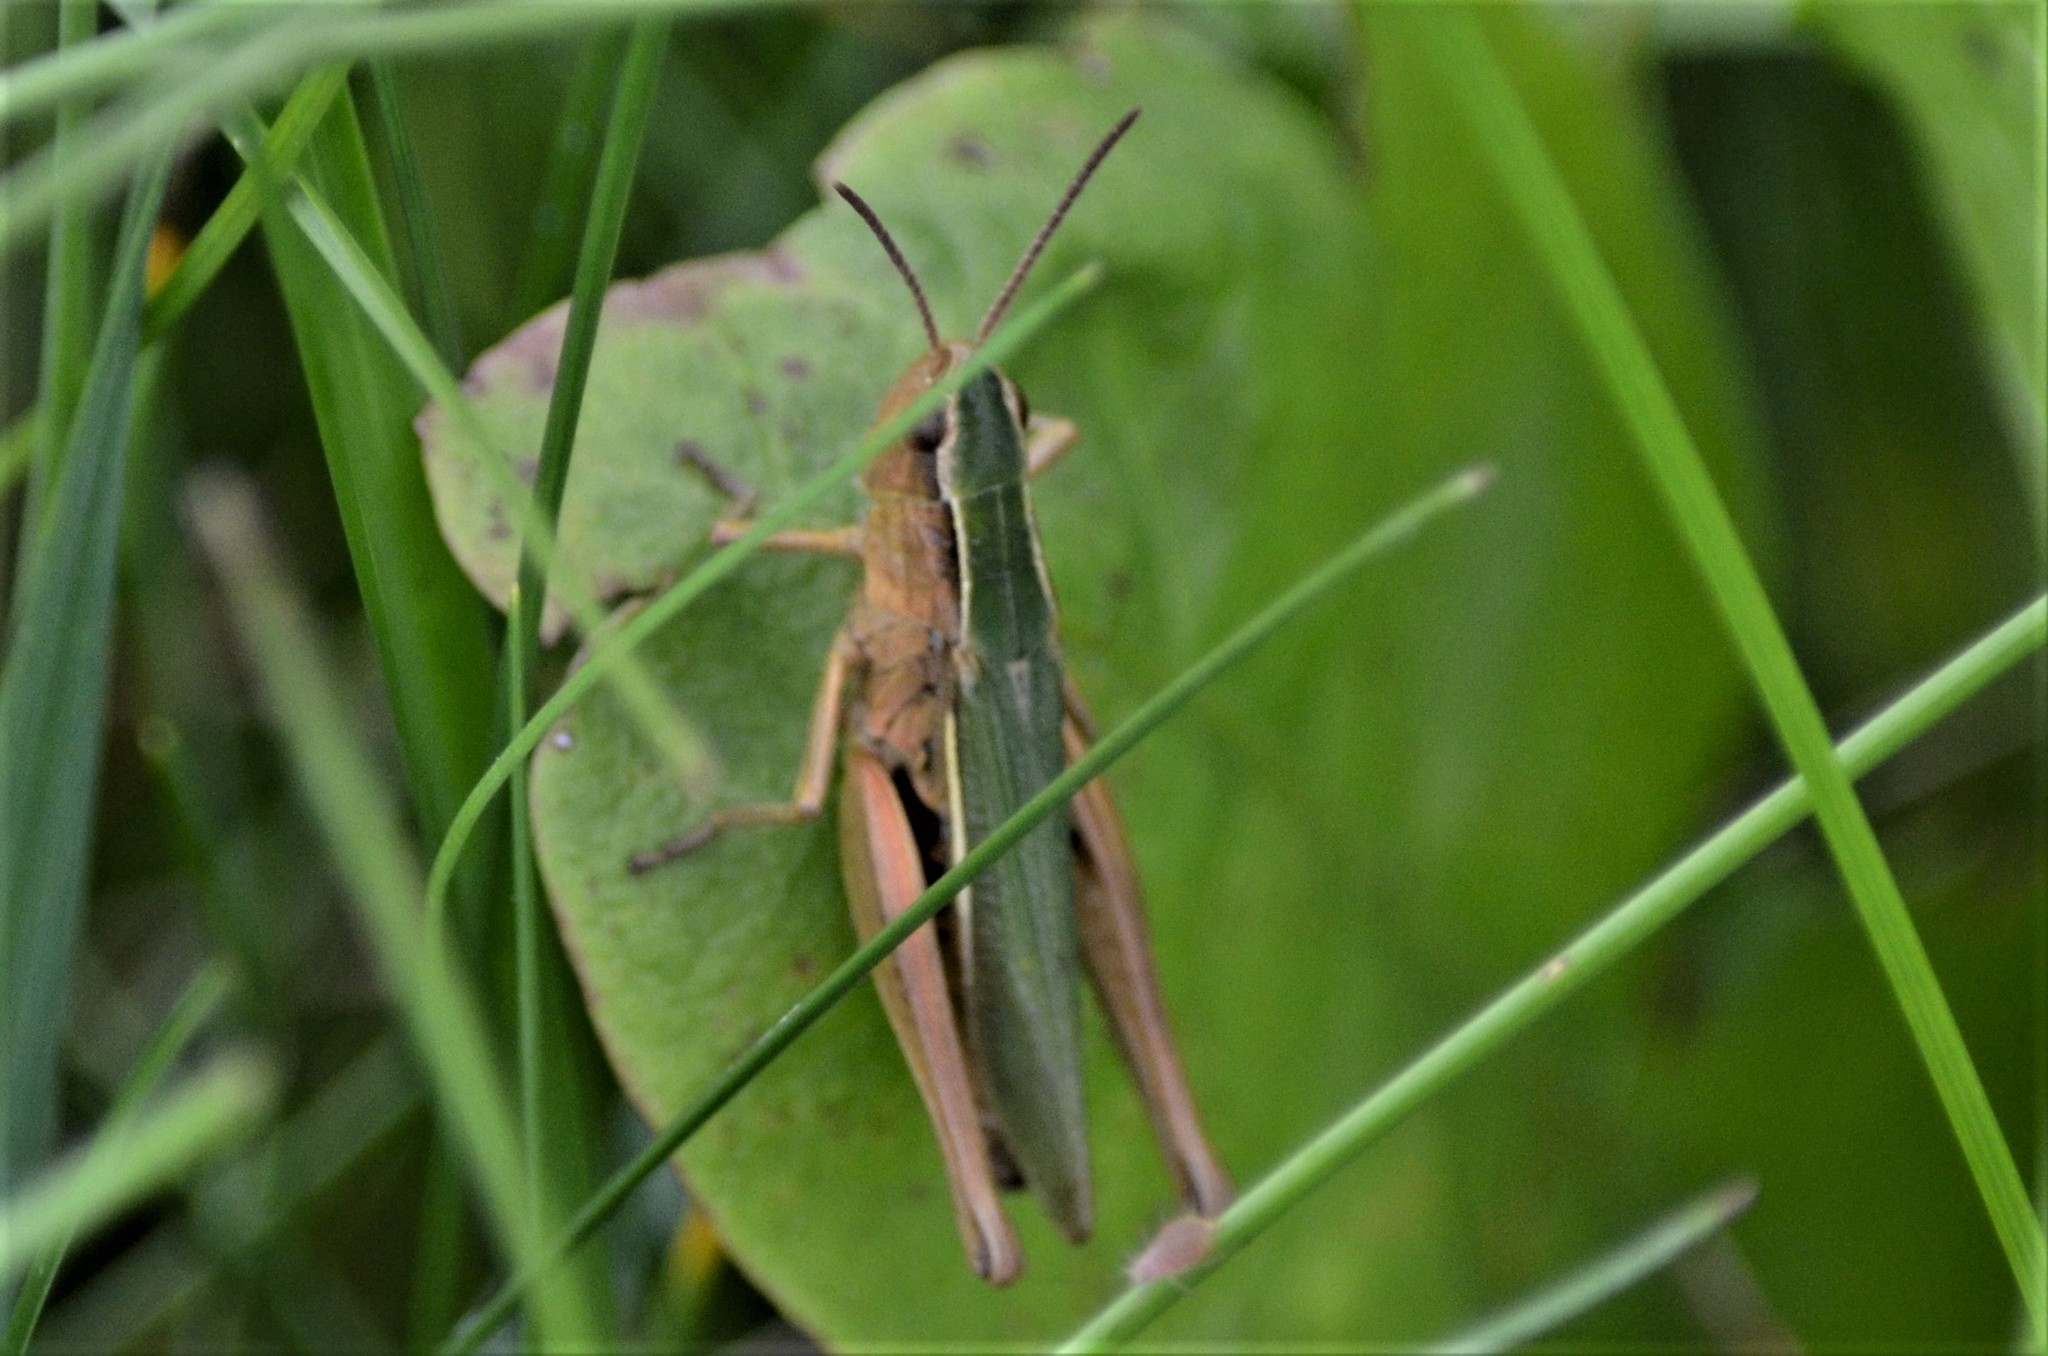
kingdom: Animalia
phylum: Arthropoda
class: Insecta
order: Orthoptera
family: Acrididae
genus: Chorthippus
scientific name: Chorthippus albomarginatus
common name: Lesser marsh grasshopper
